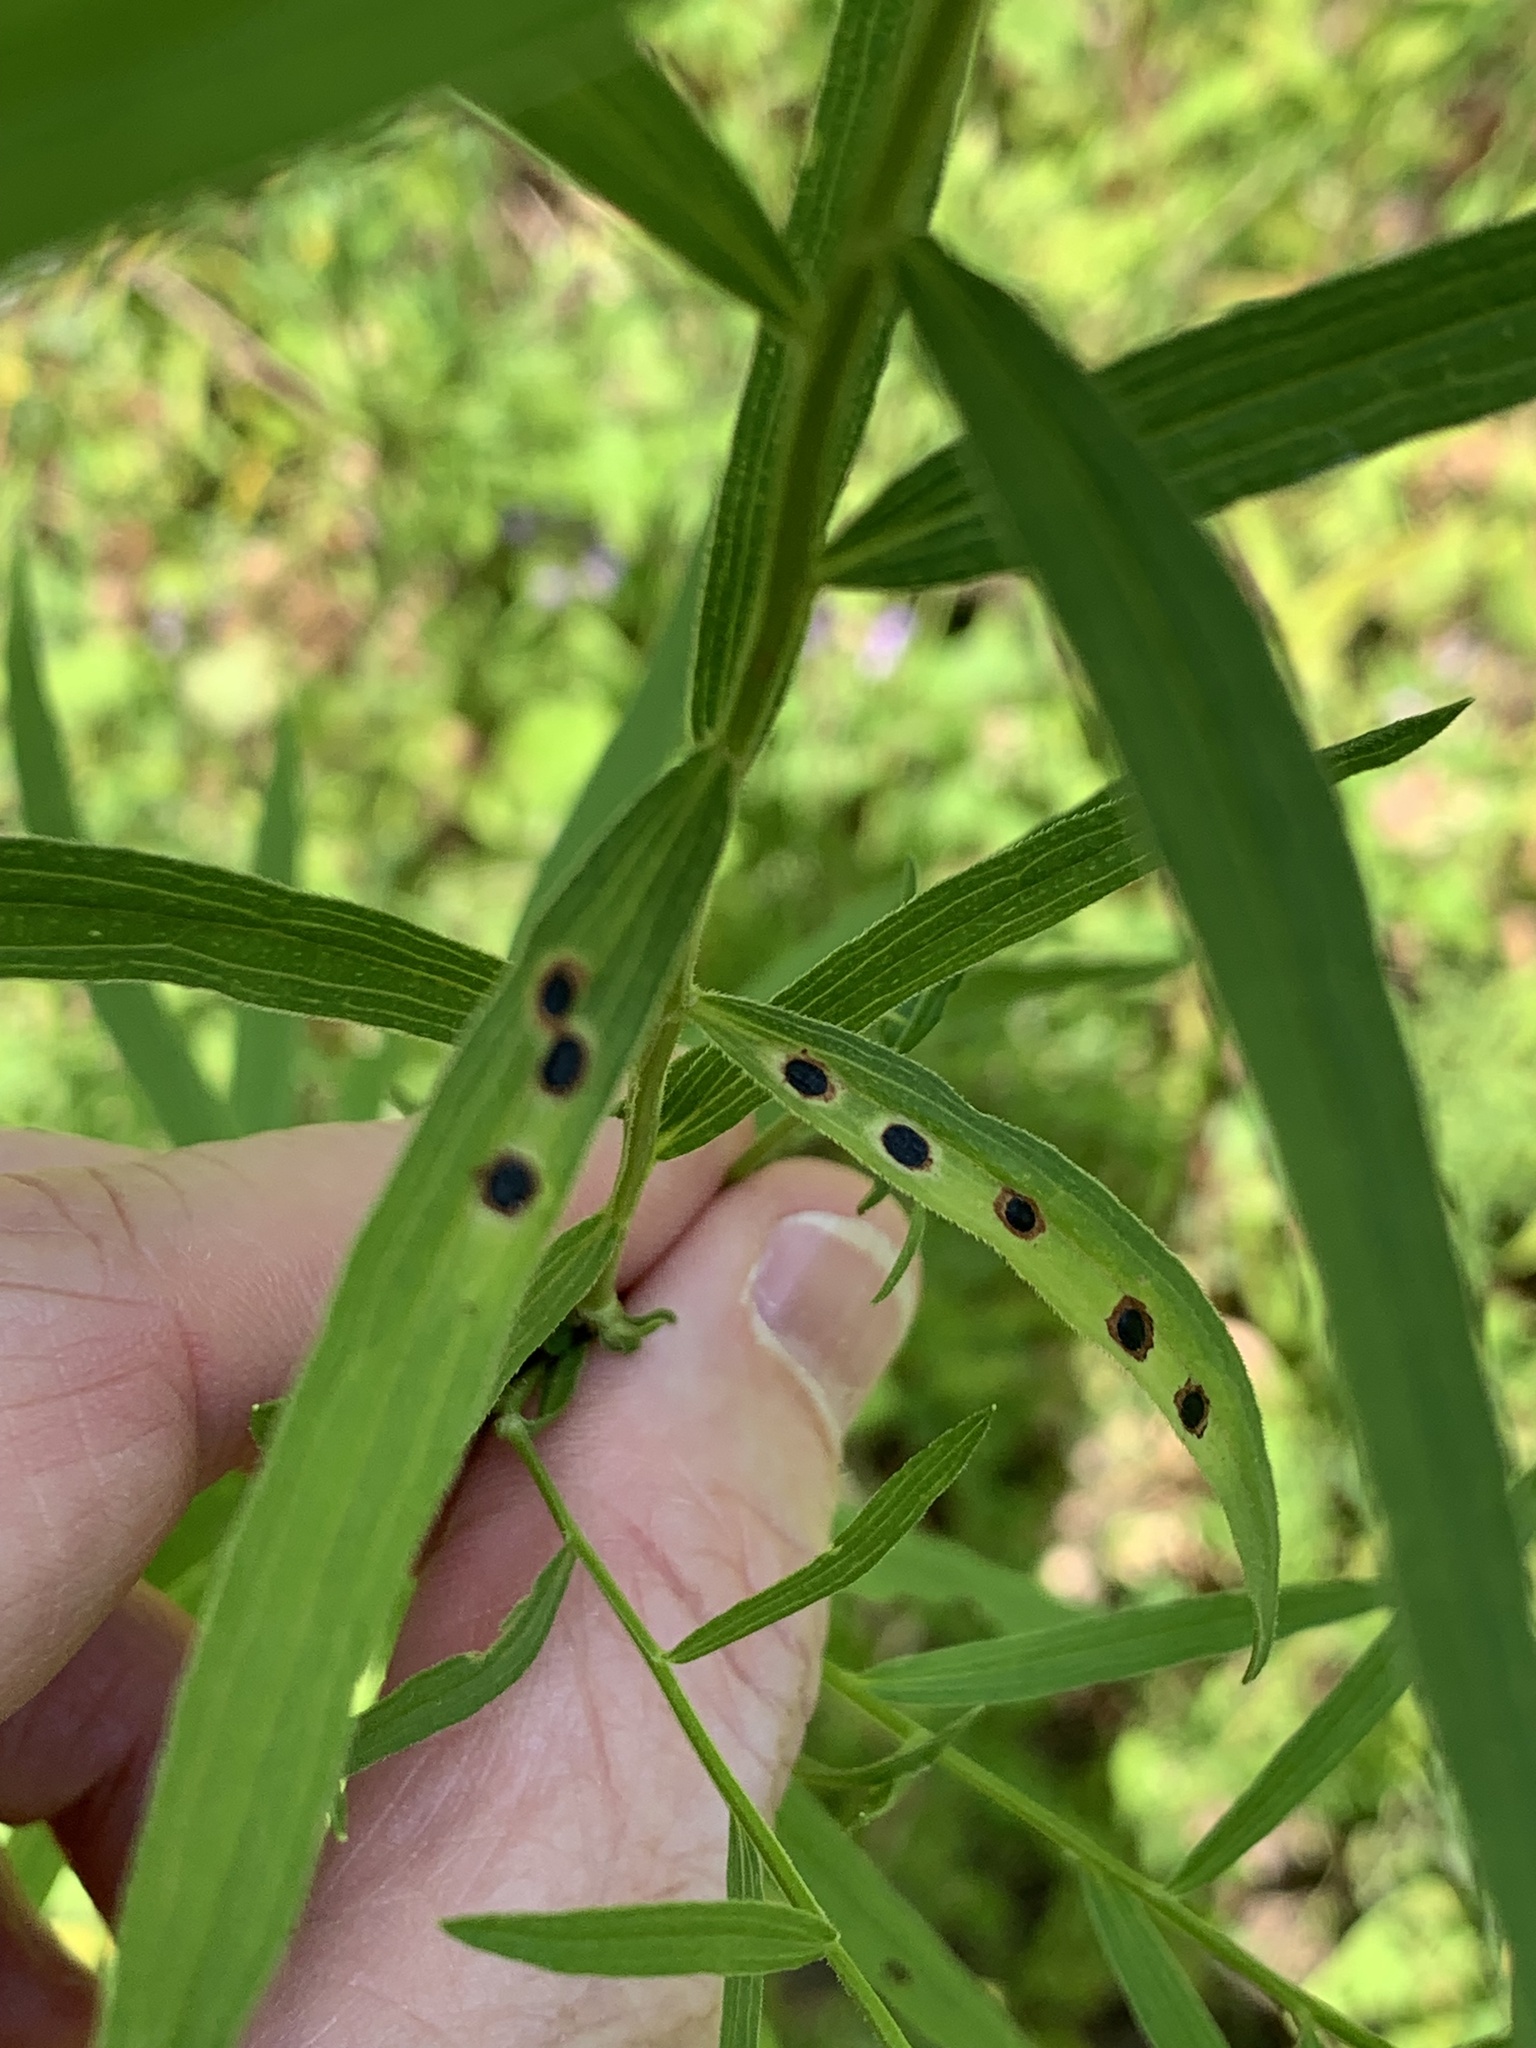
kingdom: Animalia
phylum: Arthropoda
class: Insecta
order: Diptera
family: Cecidomyiidae
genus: Asteromyia
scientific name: Asteromyia euthamiae
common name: Euthamia leaf gall midge
